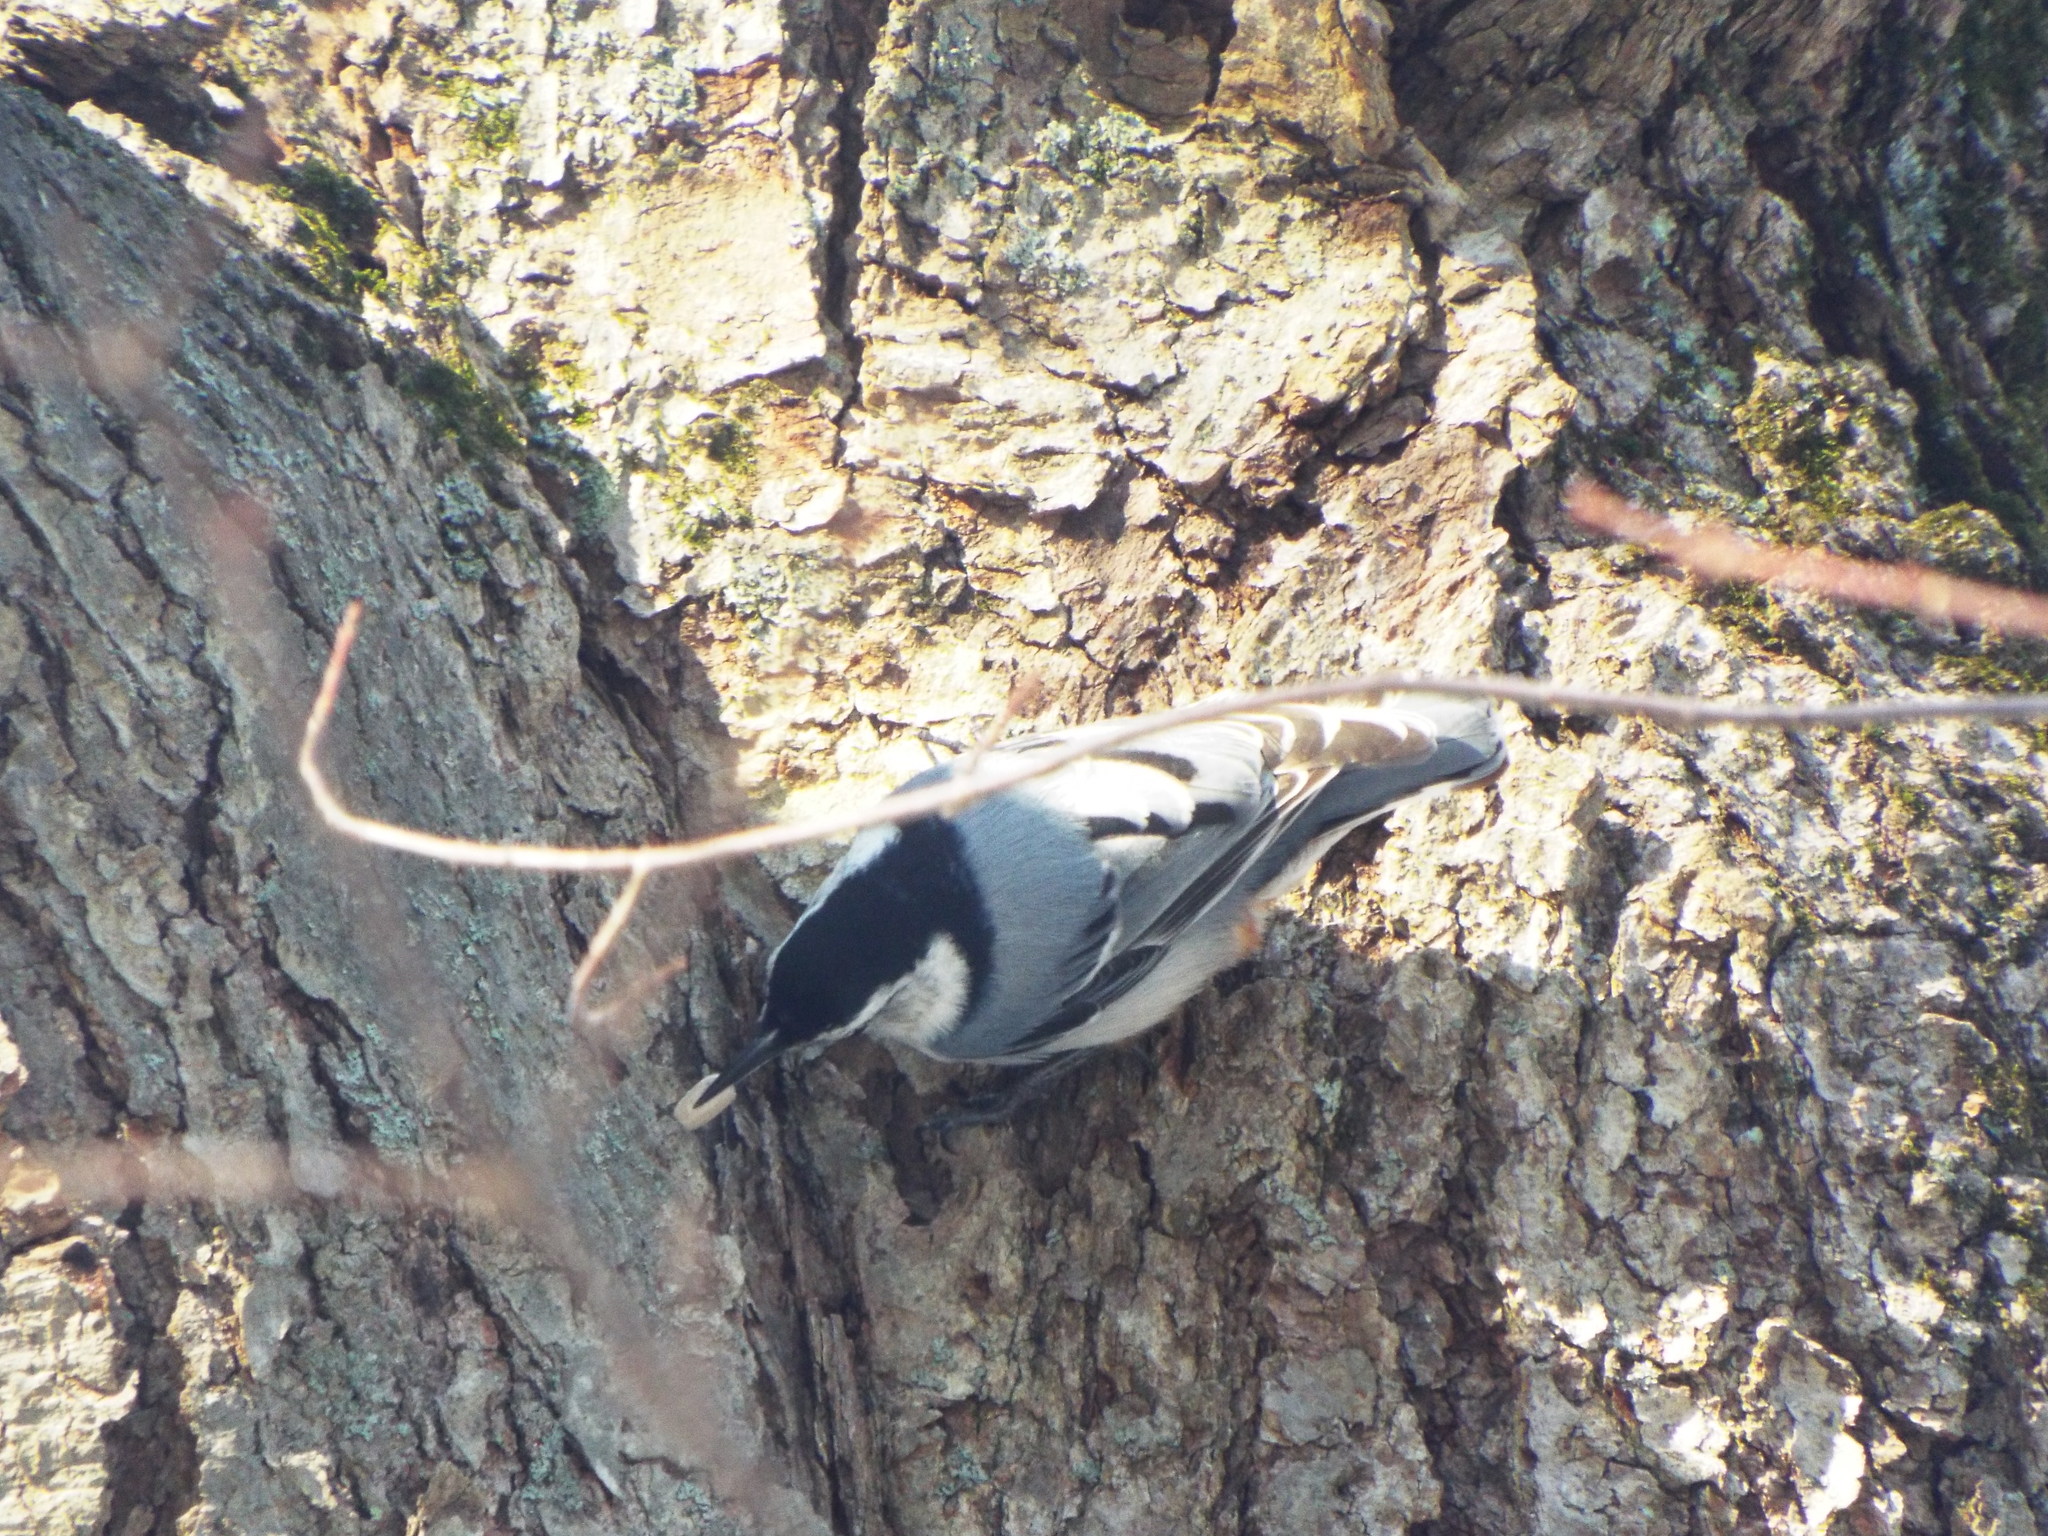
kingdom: Animalia
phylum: Chordata
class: Aves
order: Passeriformes
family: Sittidae
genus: Sitta
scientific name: Sitta carolinensis
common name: White-breasted nuthatch
